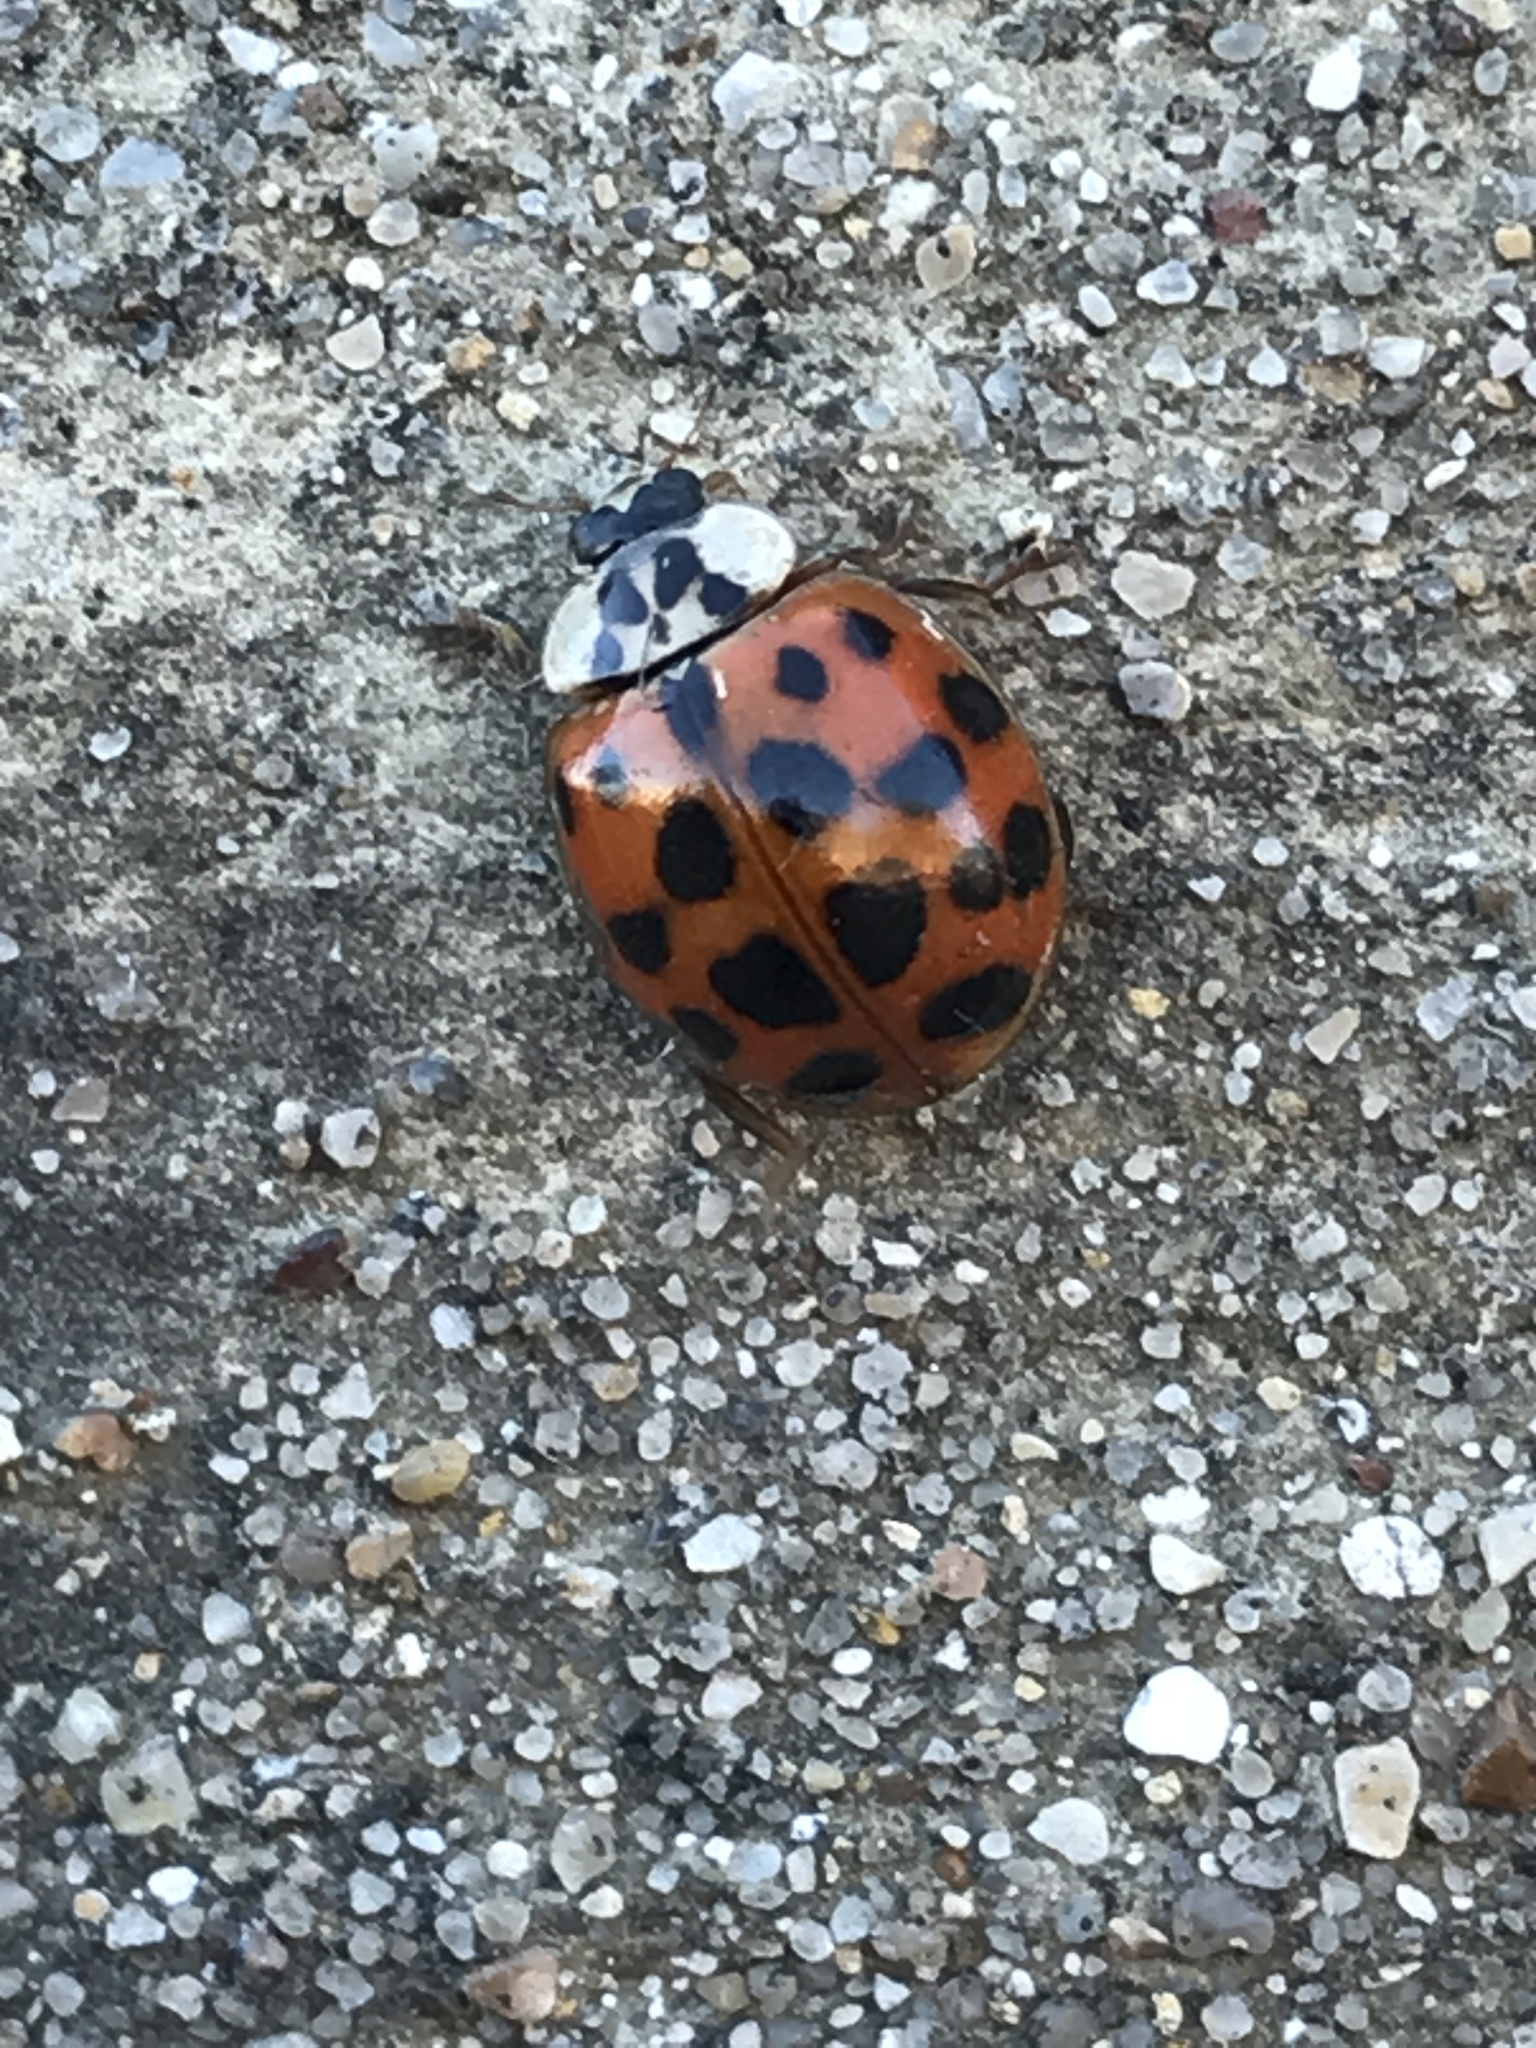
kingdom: Animalia
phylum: Arthropoda
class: Insecta
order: Coleoptera
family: Coccinellidae
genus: Harmonia
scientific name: Harmonia axyridis
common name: Harlequin ladybird
